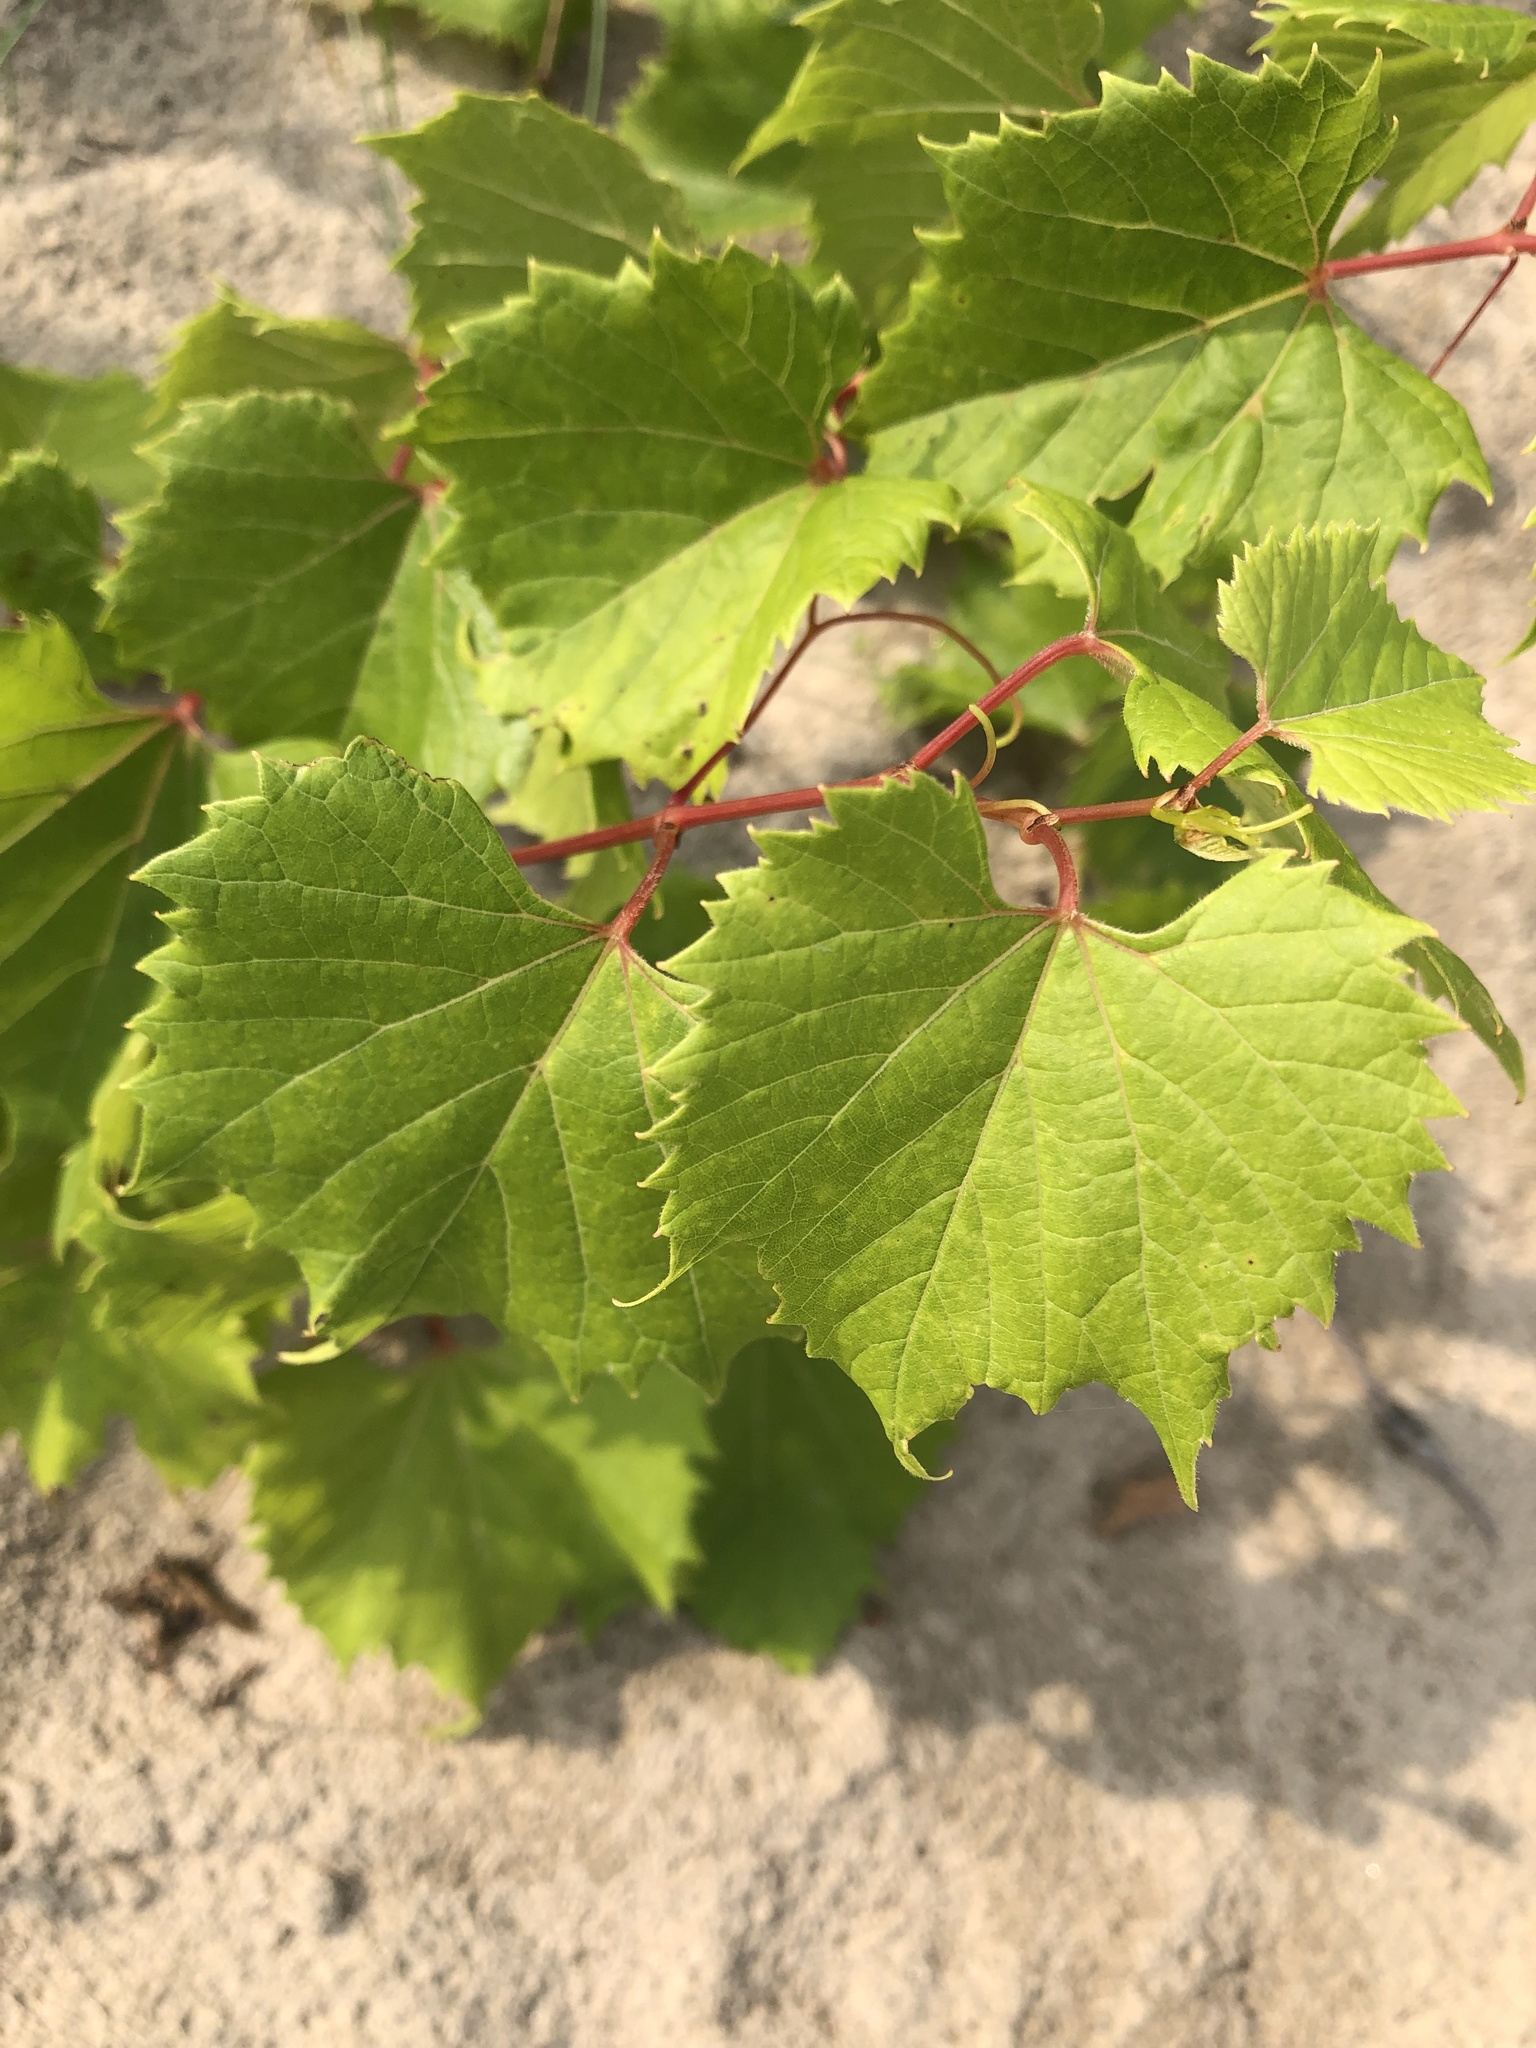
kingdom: Plantae
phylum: Tracheophyta
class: Magnoliopsida
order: Vitales
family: Vitaceae
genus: Vitis
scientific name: Vitis riparia
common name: Frost grape
